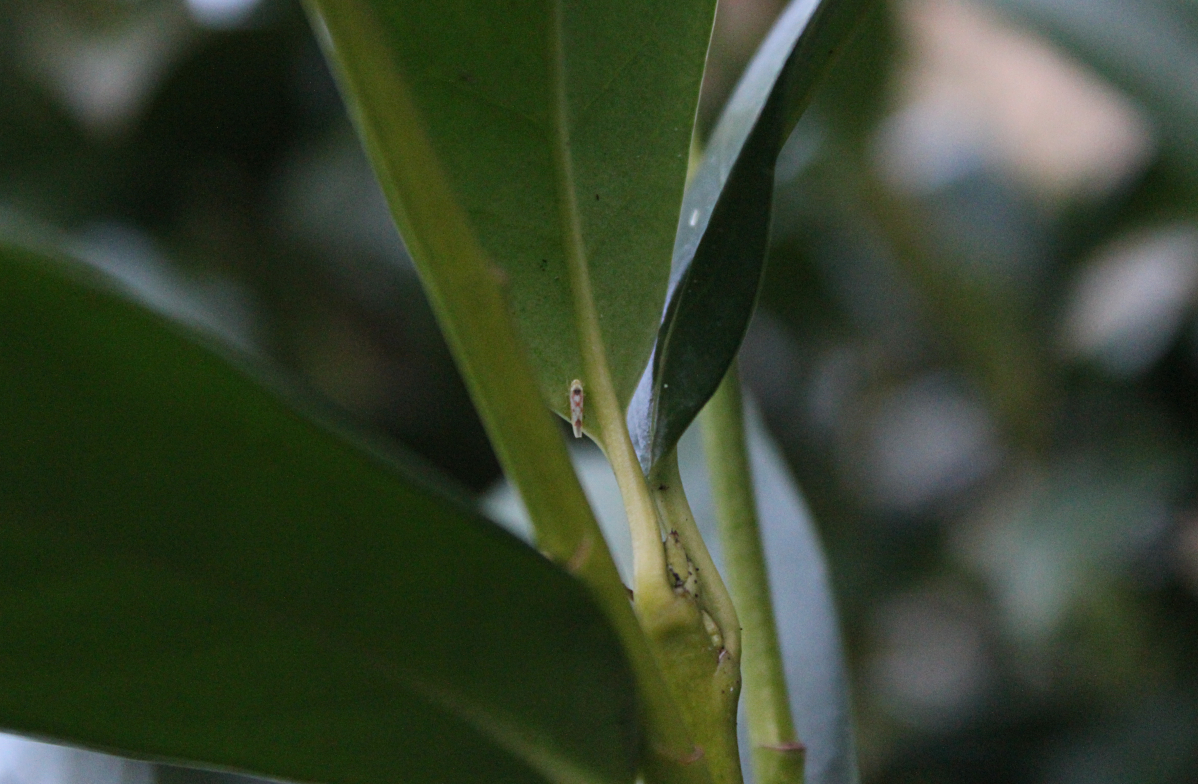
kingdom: Animalia
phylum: Arthropoda
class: Insecta
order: Hemiptera
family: Cicadellidae
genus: Zygina
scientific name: Zygina flammigera
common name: Leafhopper
